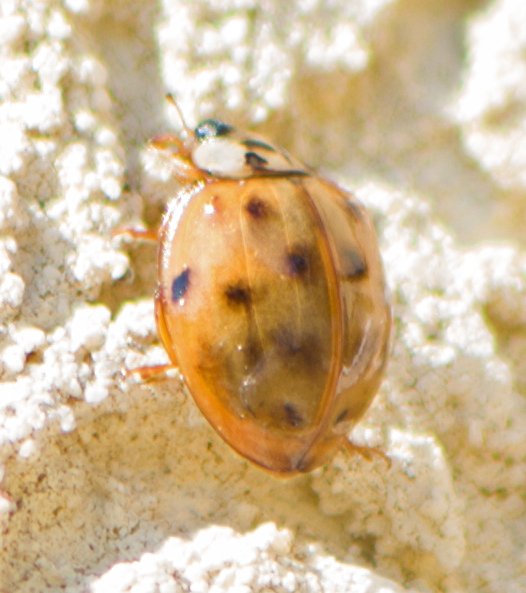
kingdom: Animalia
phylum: Arthropoda
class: Insecta
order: Coleoptera
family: Coccinellidae
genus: Harmonia
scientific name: Harmonia axyridis
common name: Harlequin ladybird
